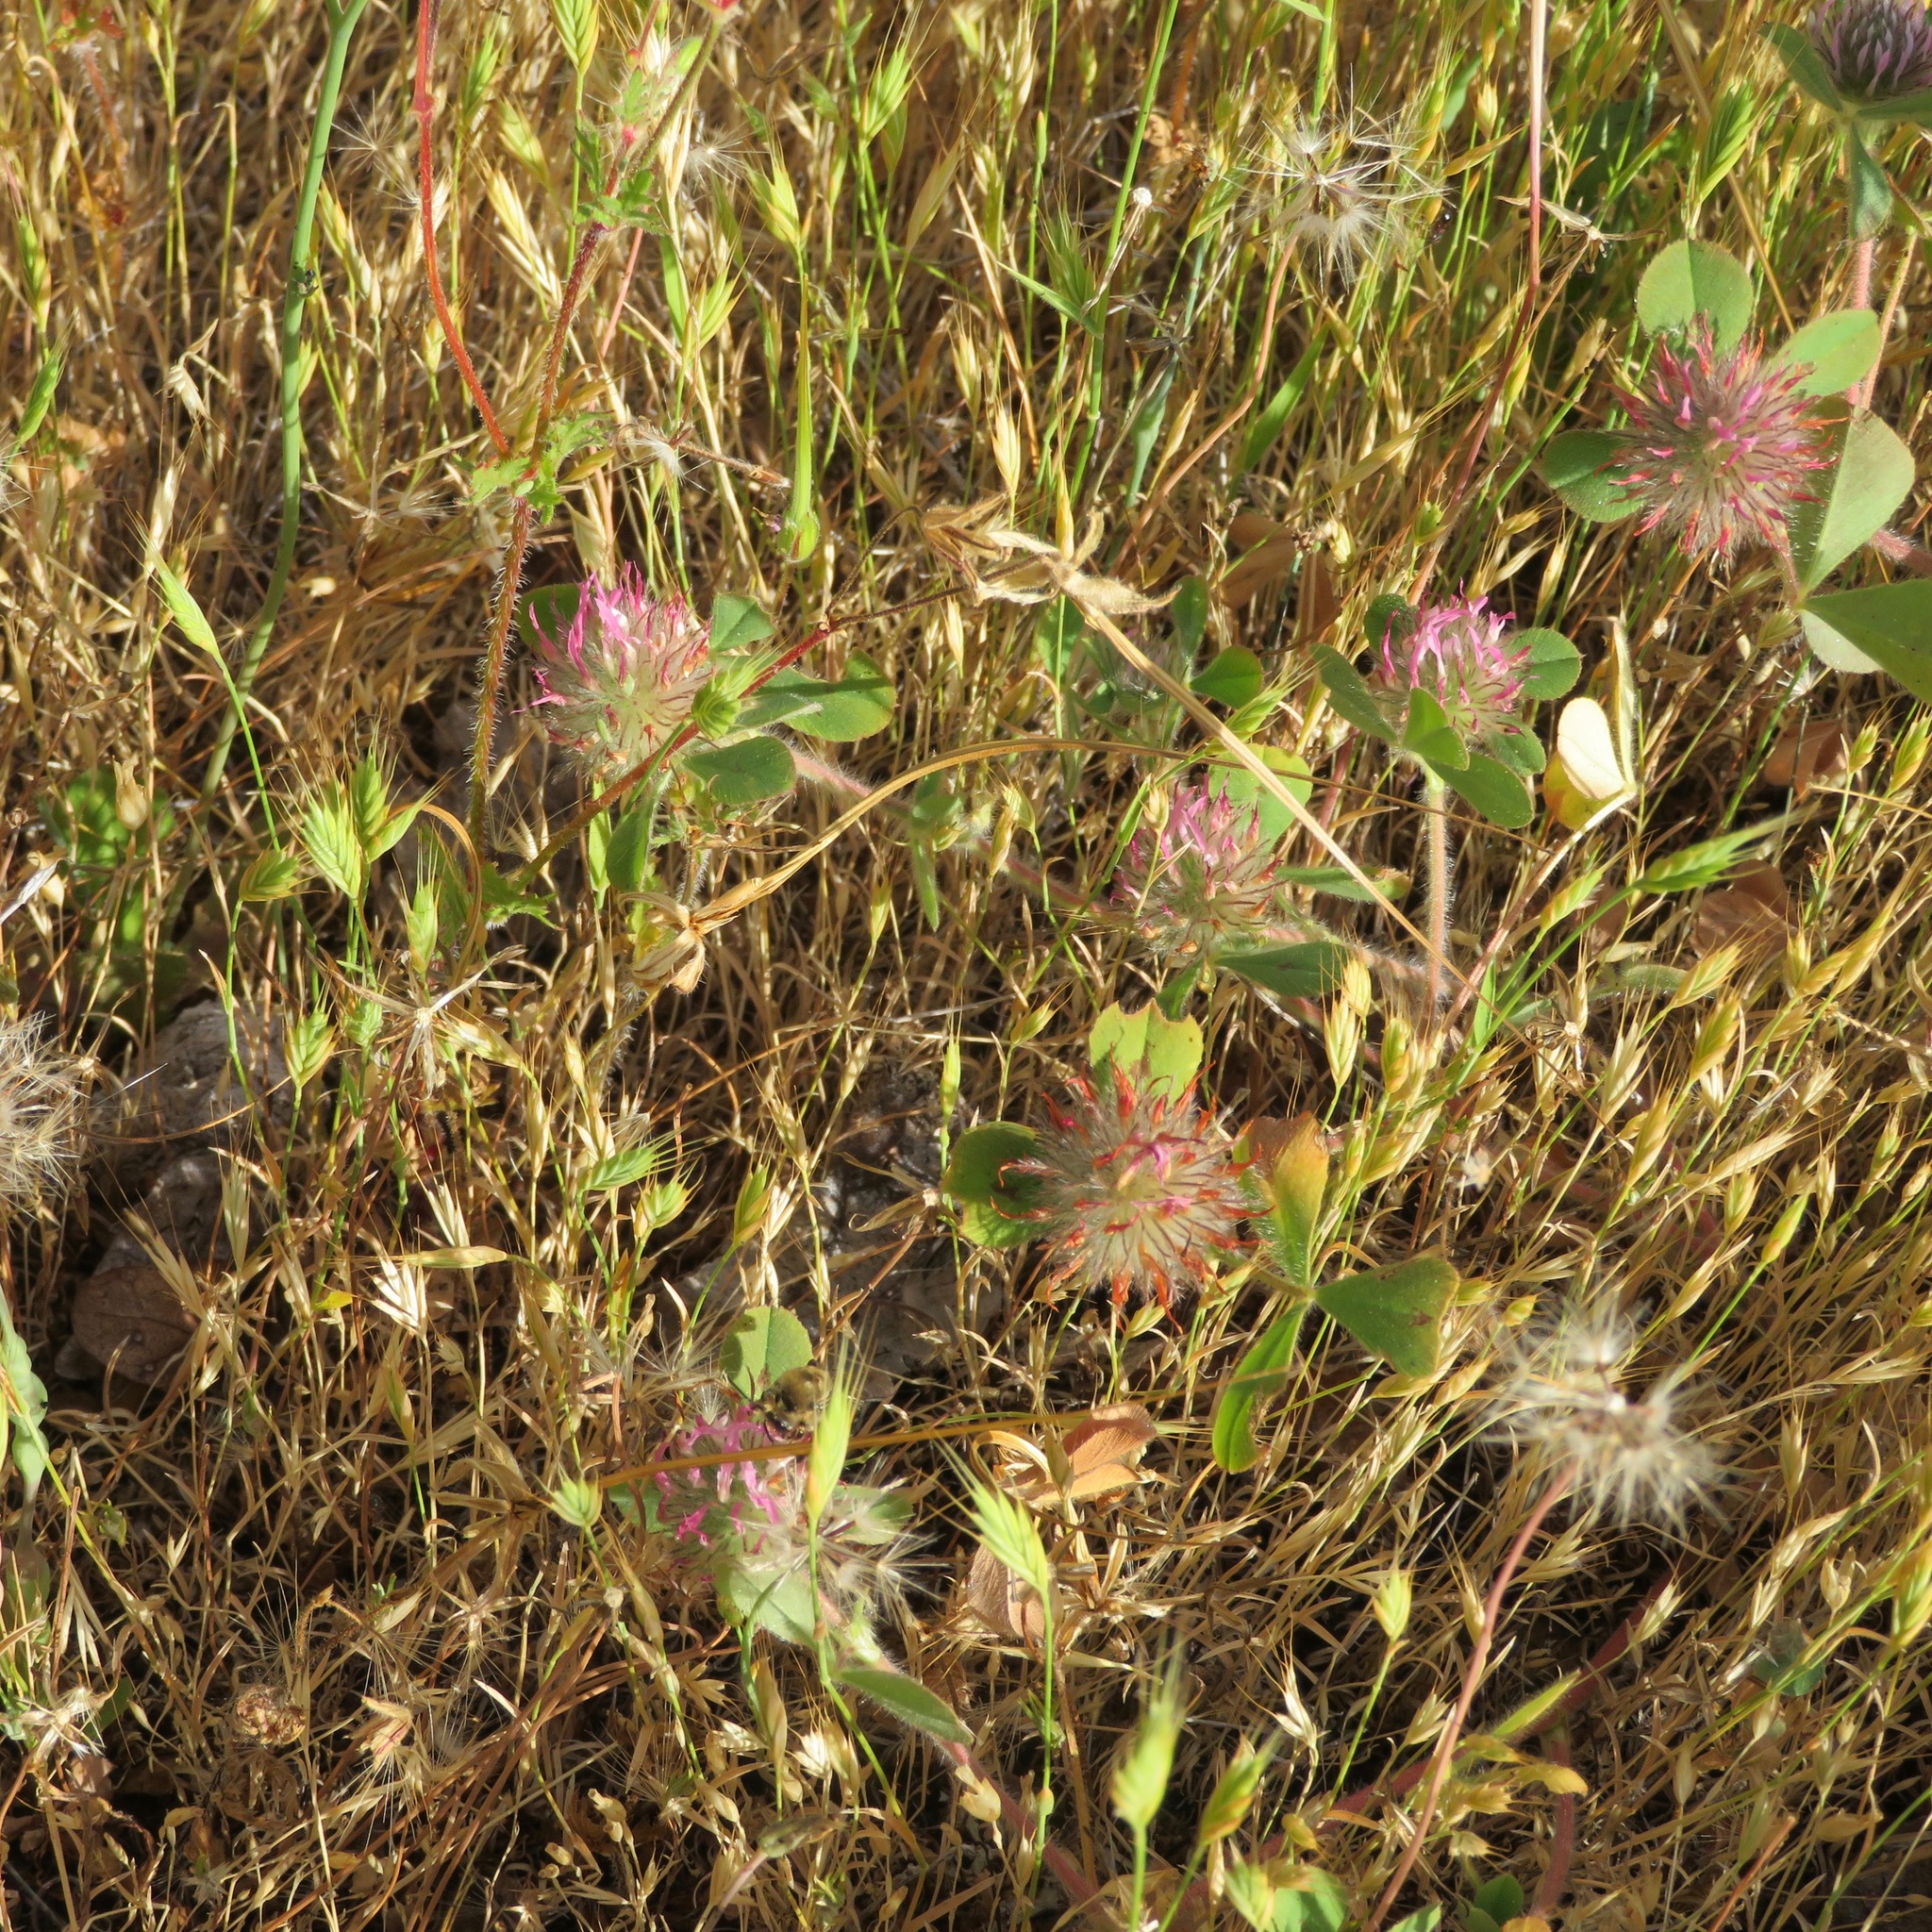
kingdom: Plantae
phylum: Tracheophyta
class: Magnoliopsida
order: Fabales
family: Fabaceae
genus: Trifolium
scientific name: Trifolium hirtum
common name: Rose clover
